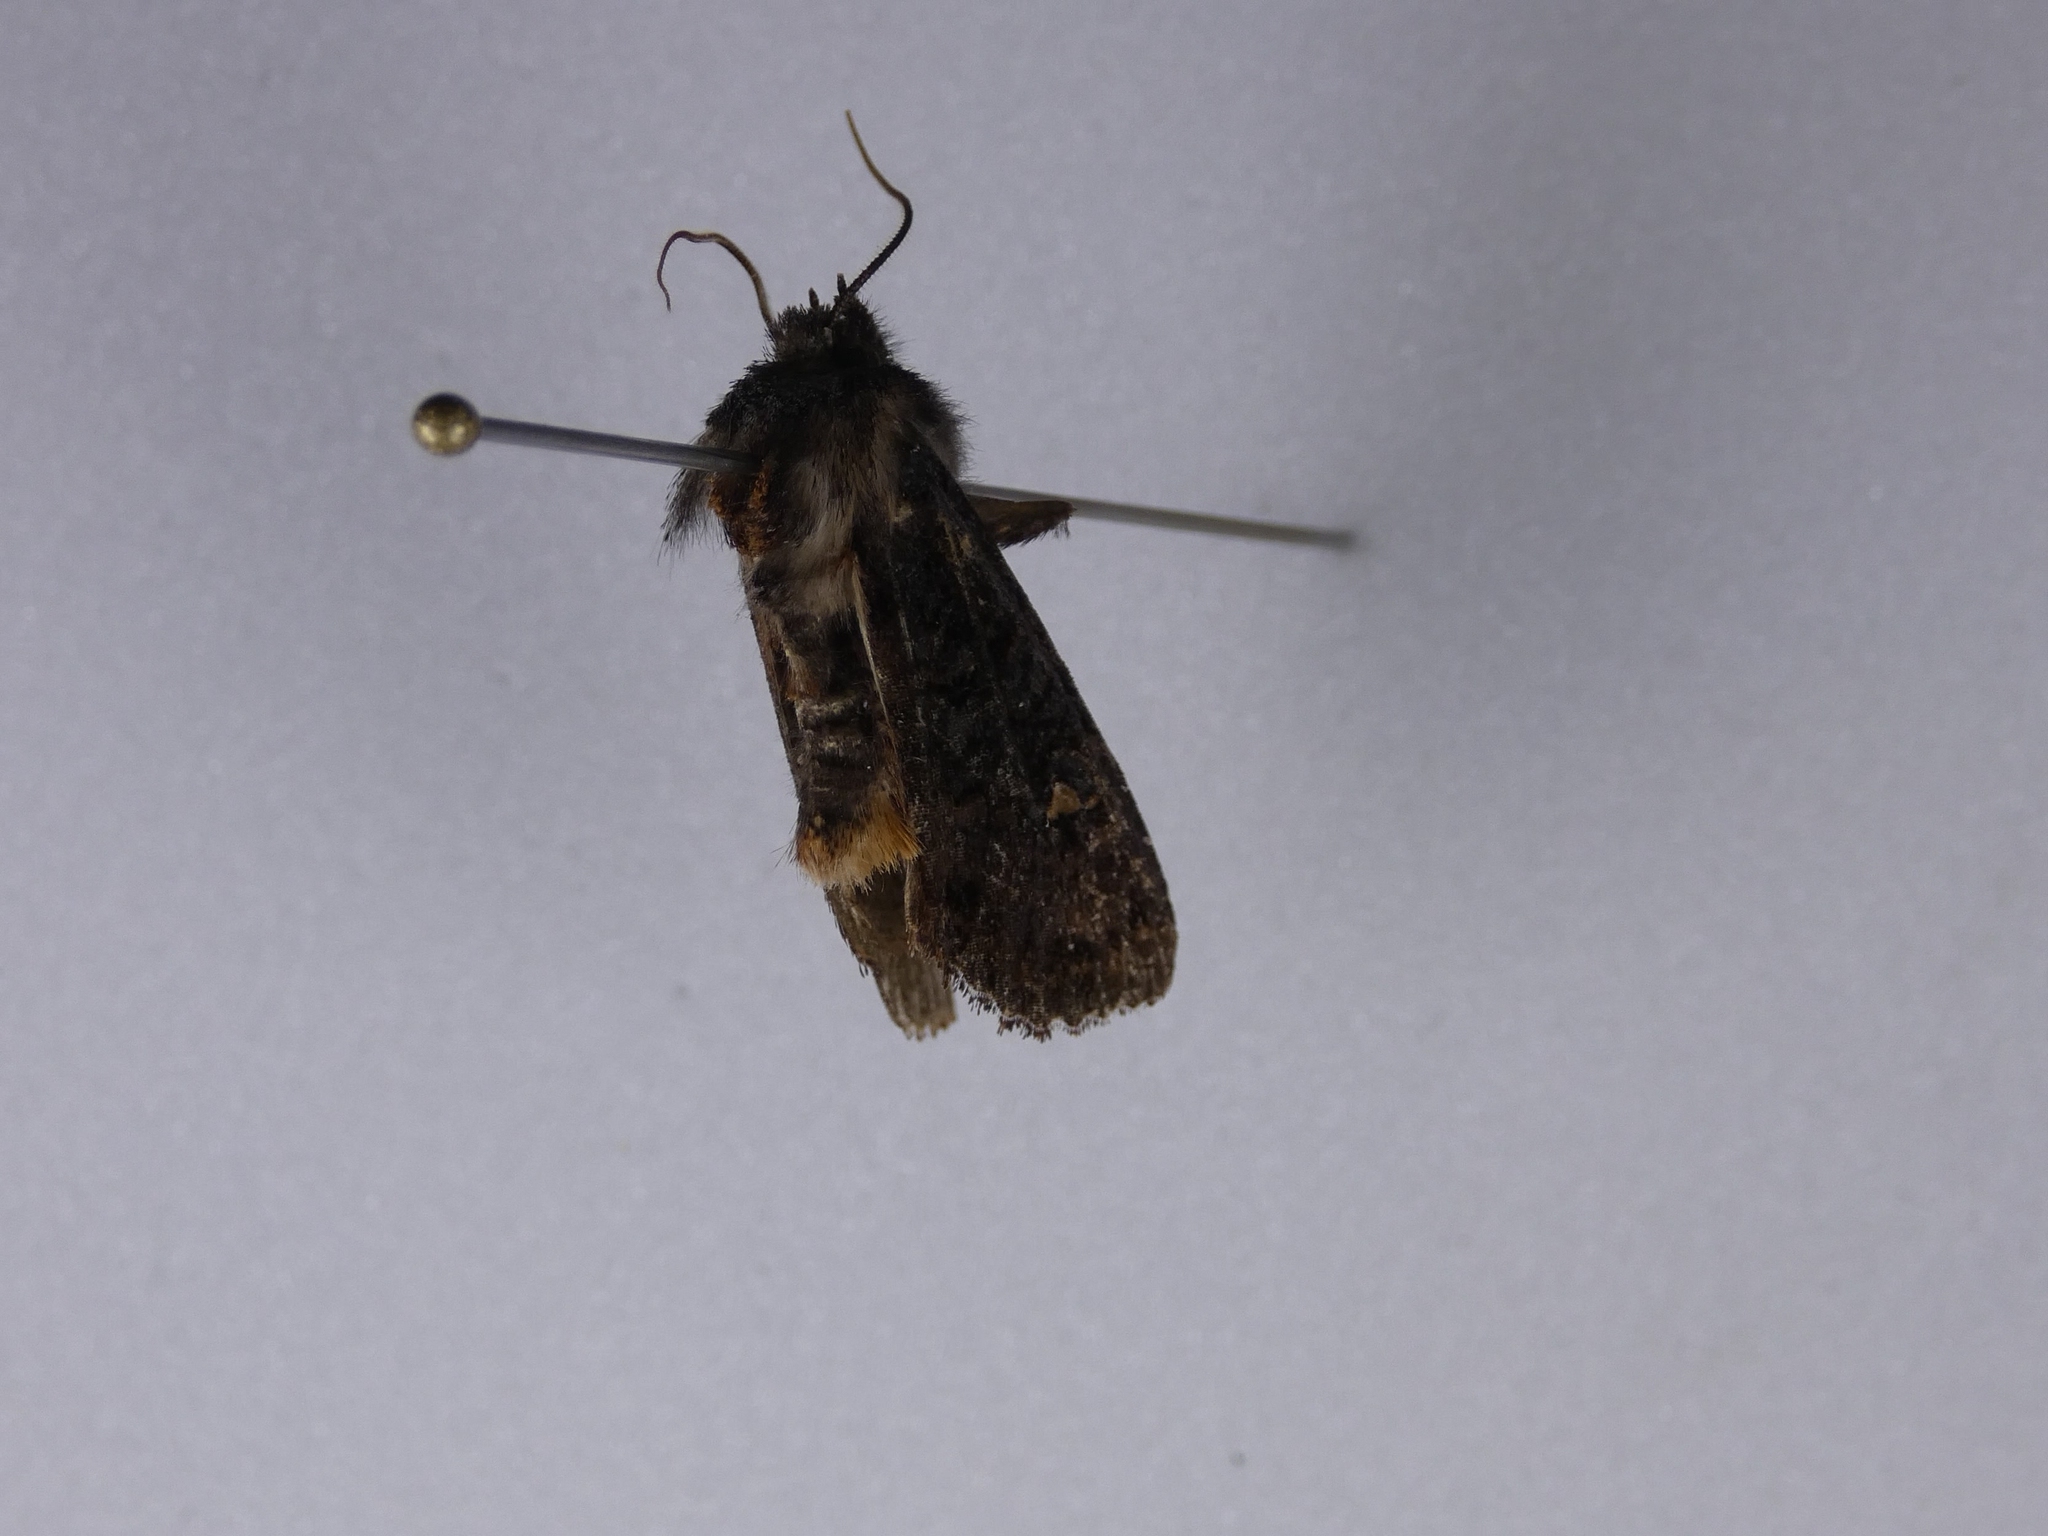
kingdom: Animalia
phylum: Arthropoda
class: Insecta
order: Lepidoptera
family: Noctuidae
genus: Meterana
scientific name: Meterana vitiosa
